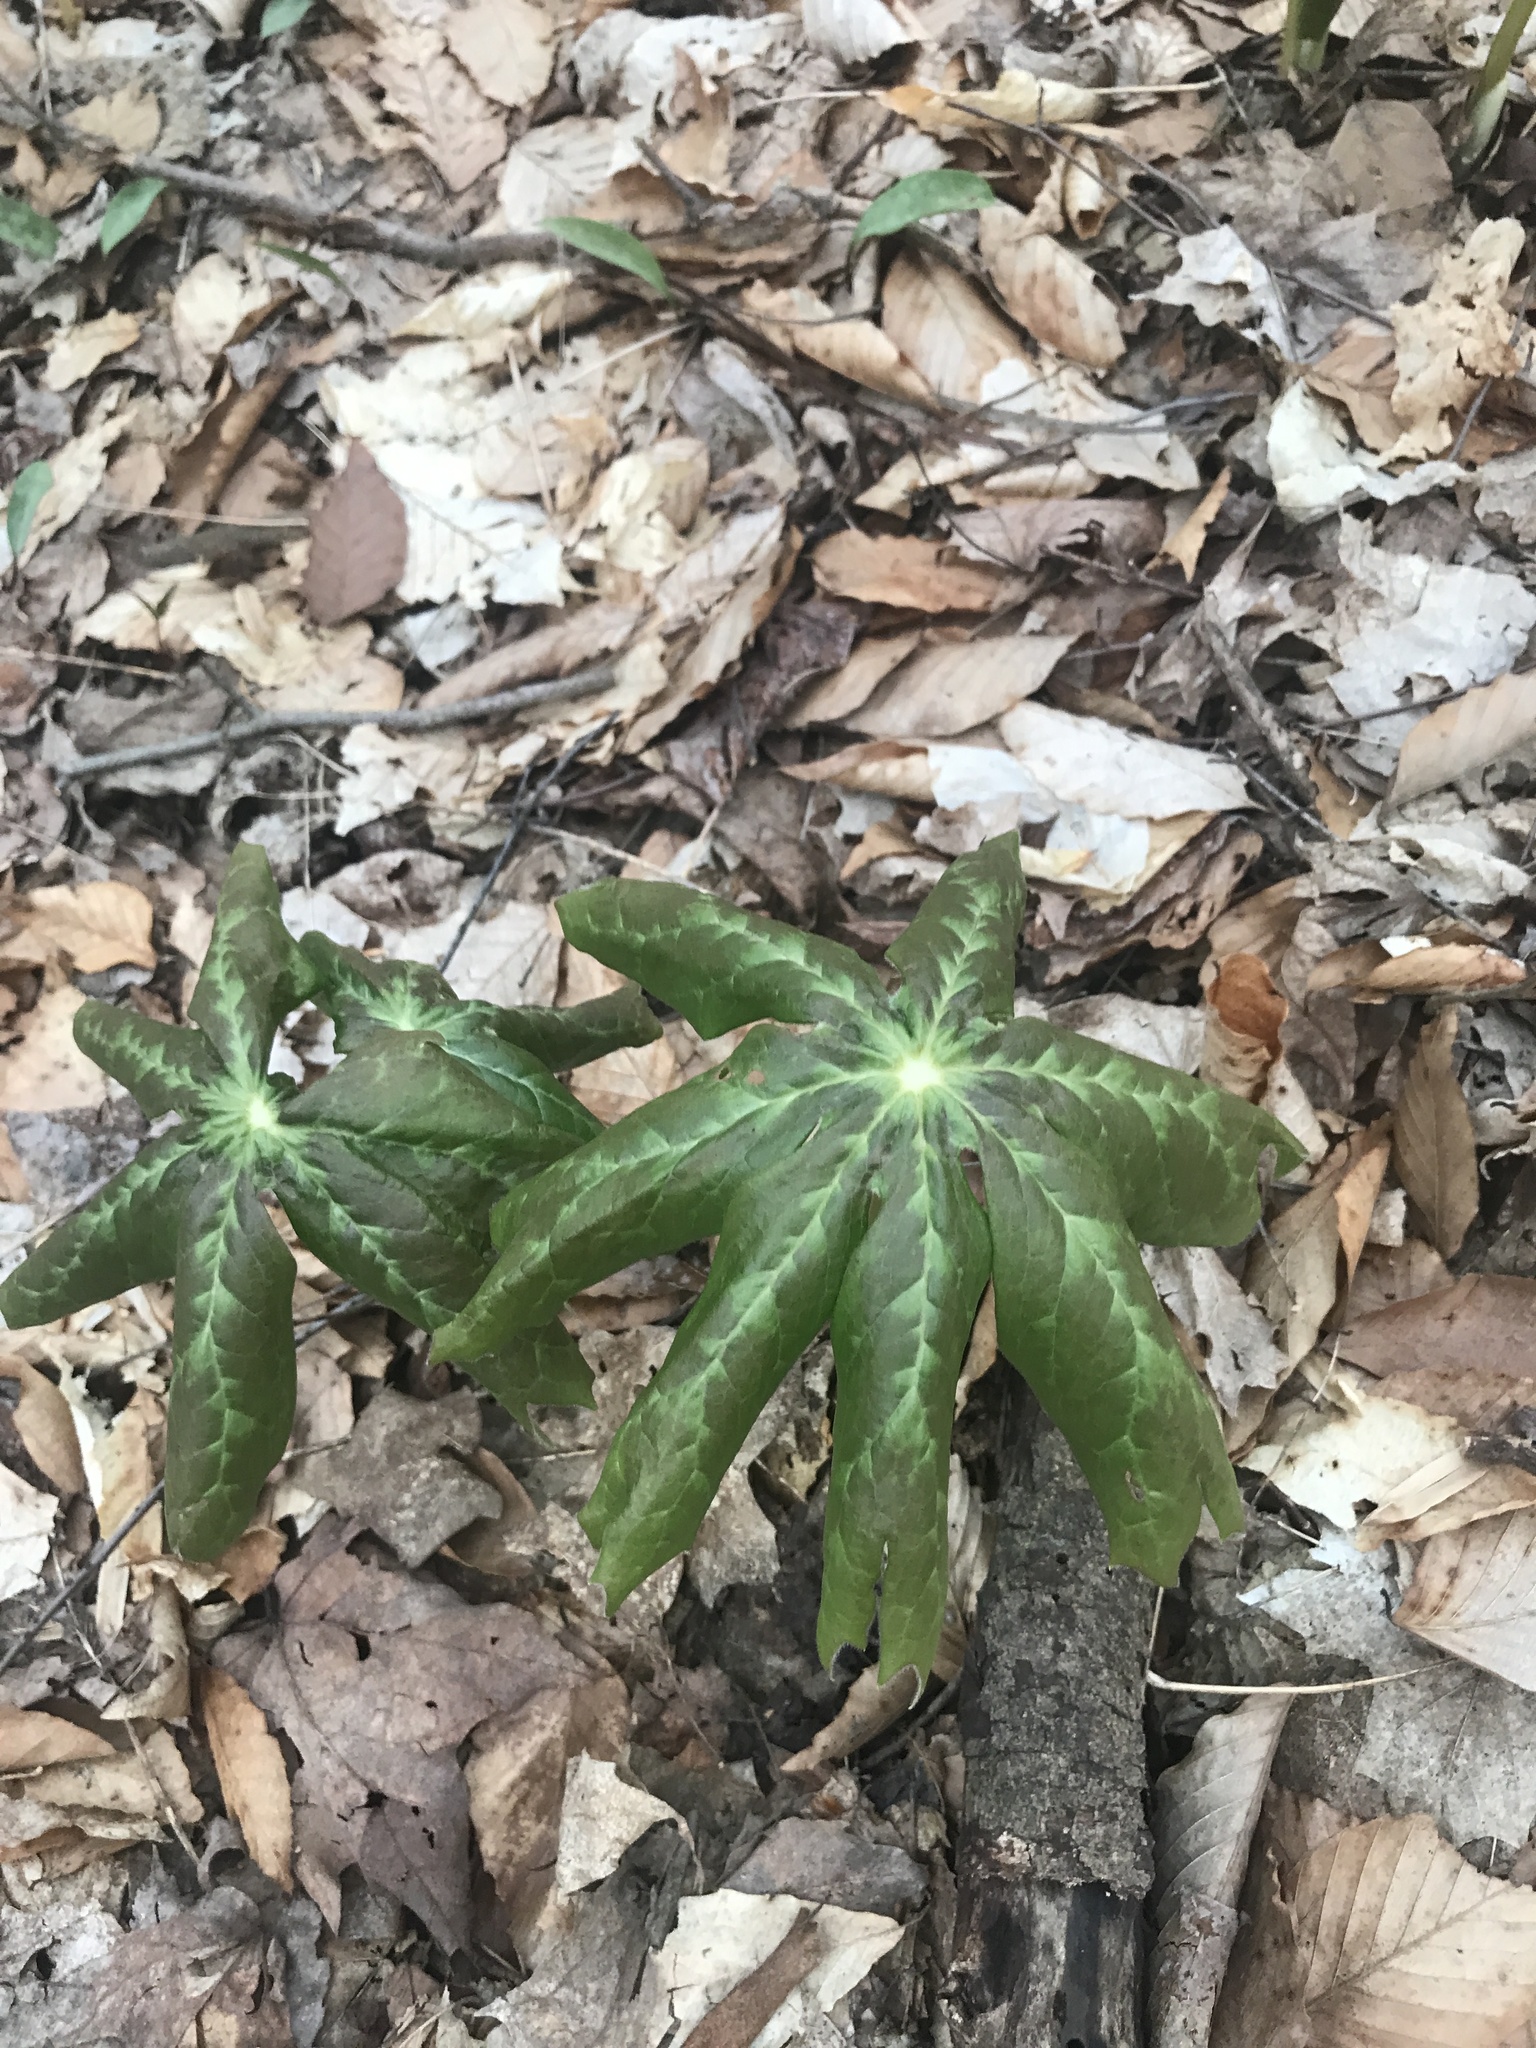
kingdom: Plantae
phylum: Tracheophyta
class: Magnoliopsida
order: Ranunculales
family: Berberidaceae
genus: Podophyllum
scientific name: Podophyllum peltatum
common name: Wild mandrake
